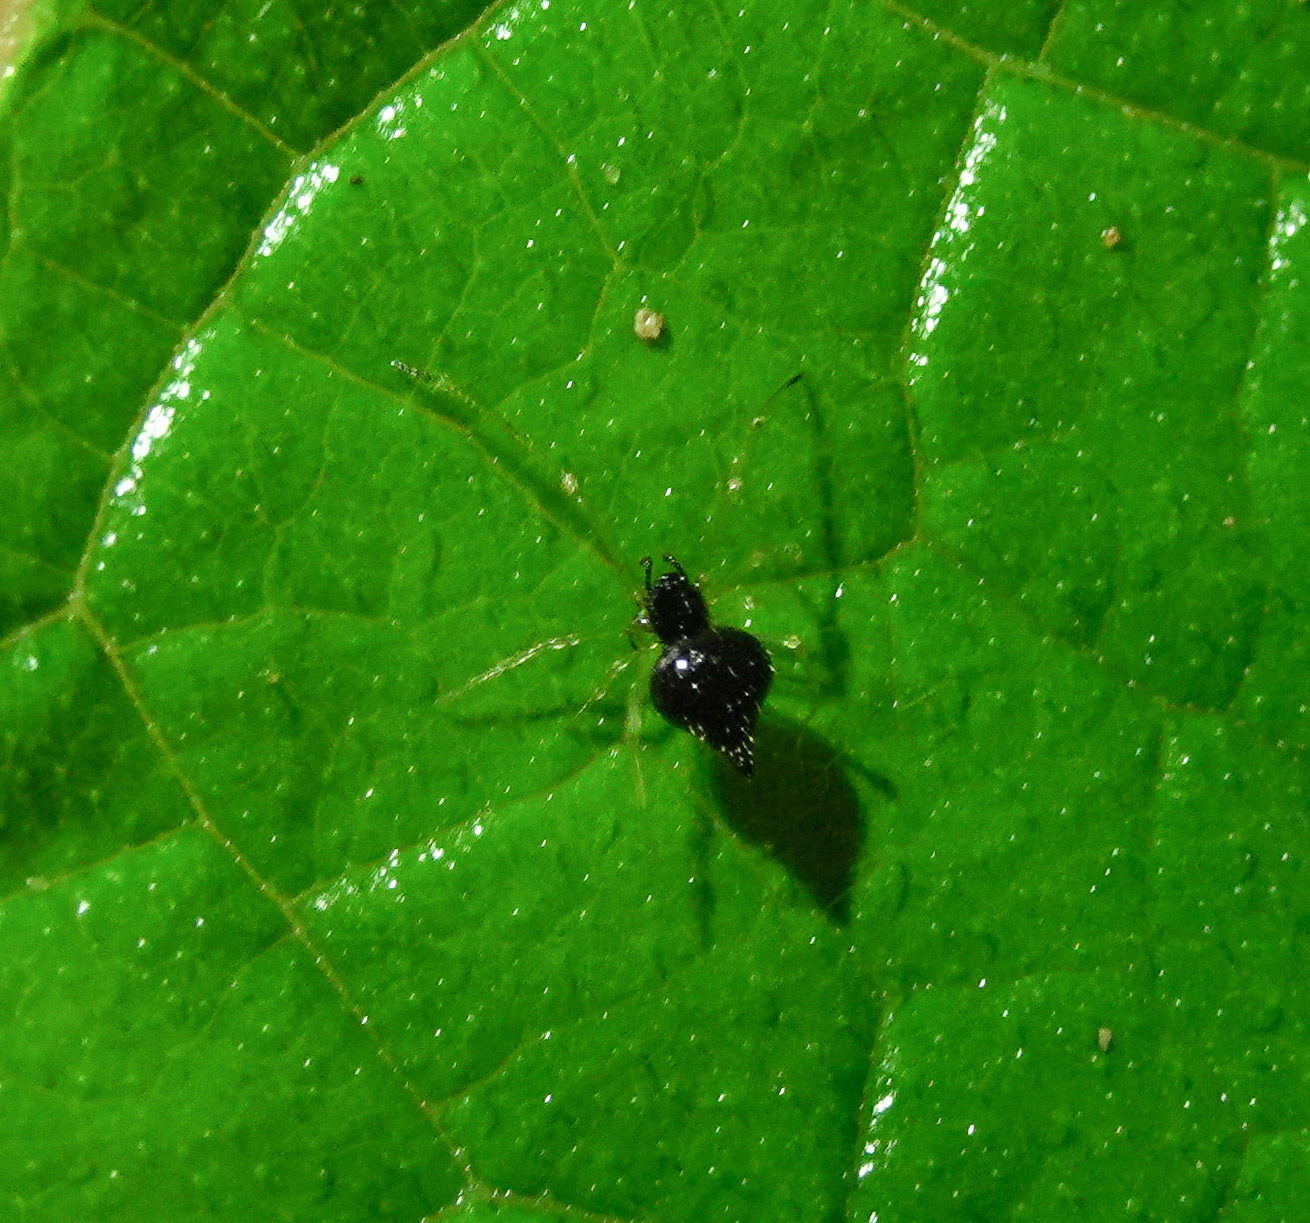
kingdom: Animalia
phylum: Arthropoda
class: Arachnida
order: Araneae
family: Theridiidae
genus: Chikunia
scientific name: Chikunia nigra
